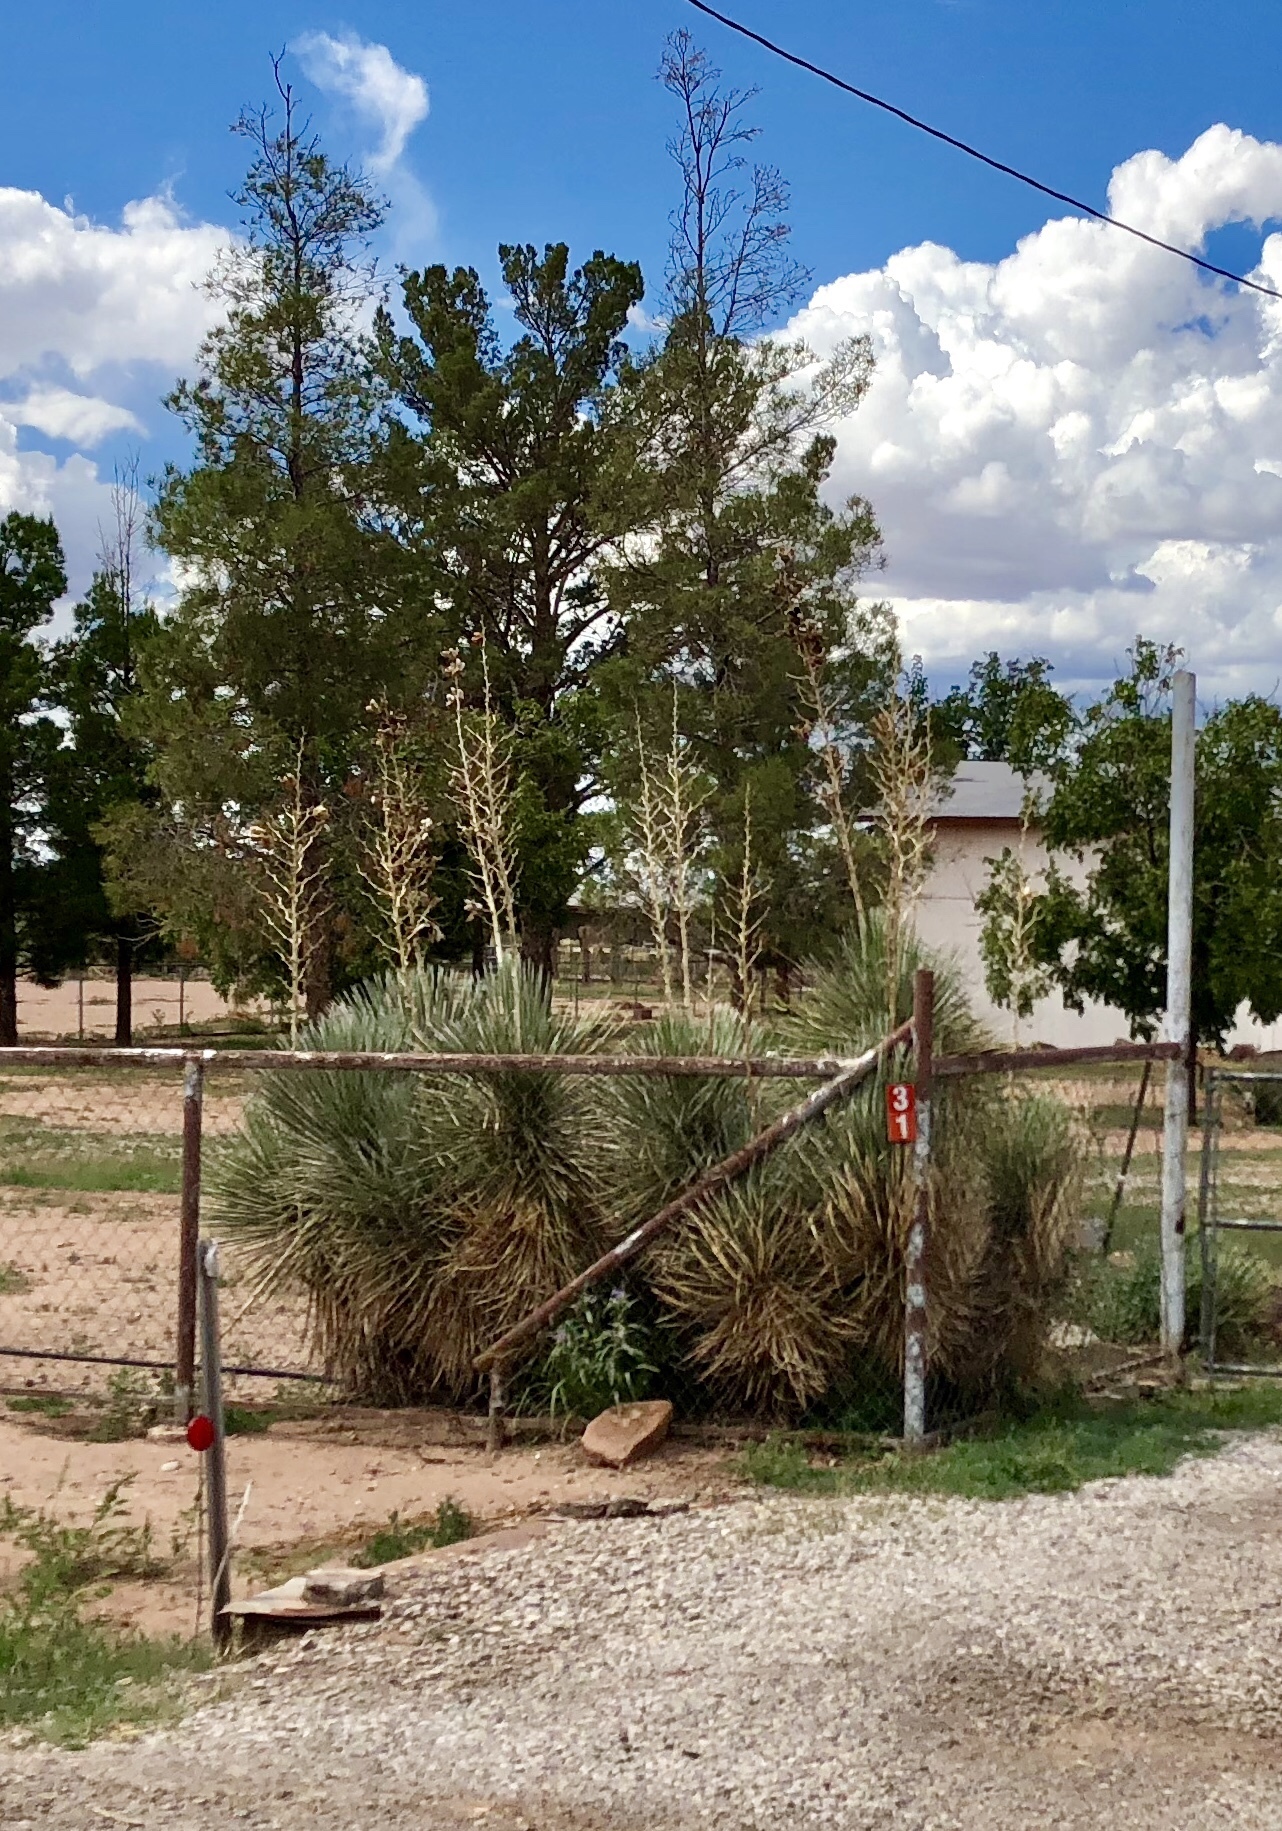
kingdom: Plantae
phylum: Tracheophyta
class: Liliopsida
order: Asparagales
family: Asparagaceae
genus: Yucca
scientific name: Yucca elata
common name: Palmella
